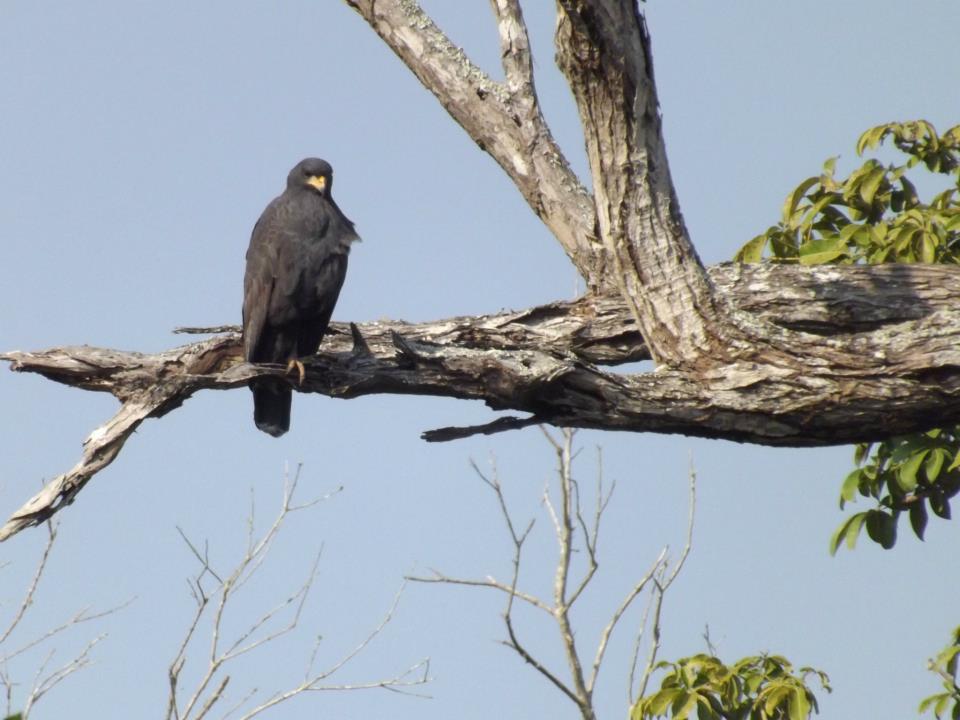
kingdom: Animalia
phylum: Chordata
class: Aves
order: Accipitriformes
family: Accipitridae
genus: Buteogallus
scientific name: Buteogallus anthracinus
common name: Common black hawk
